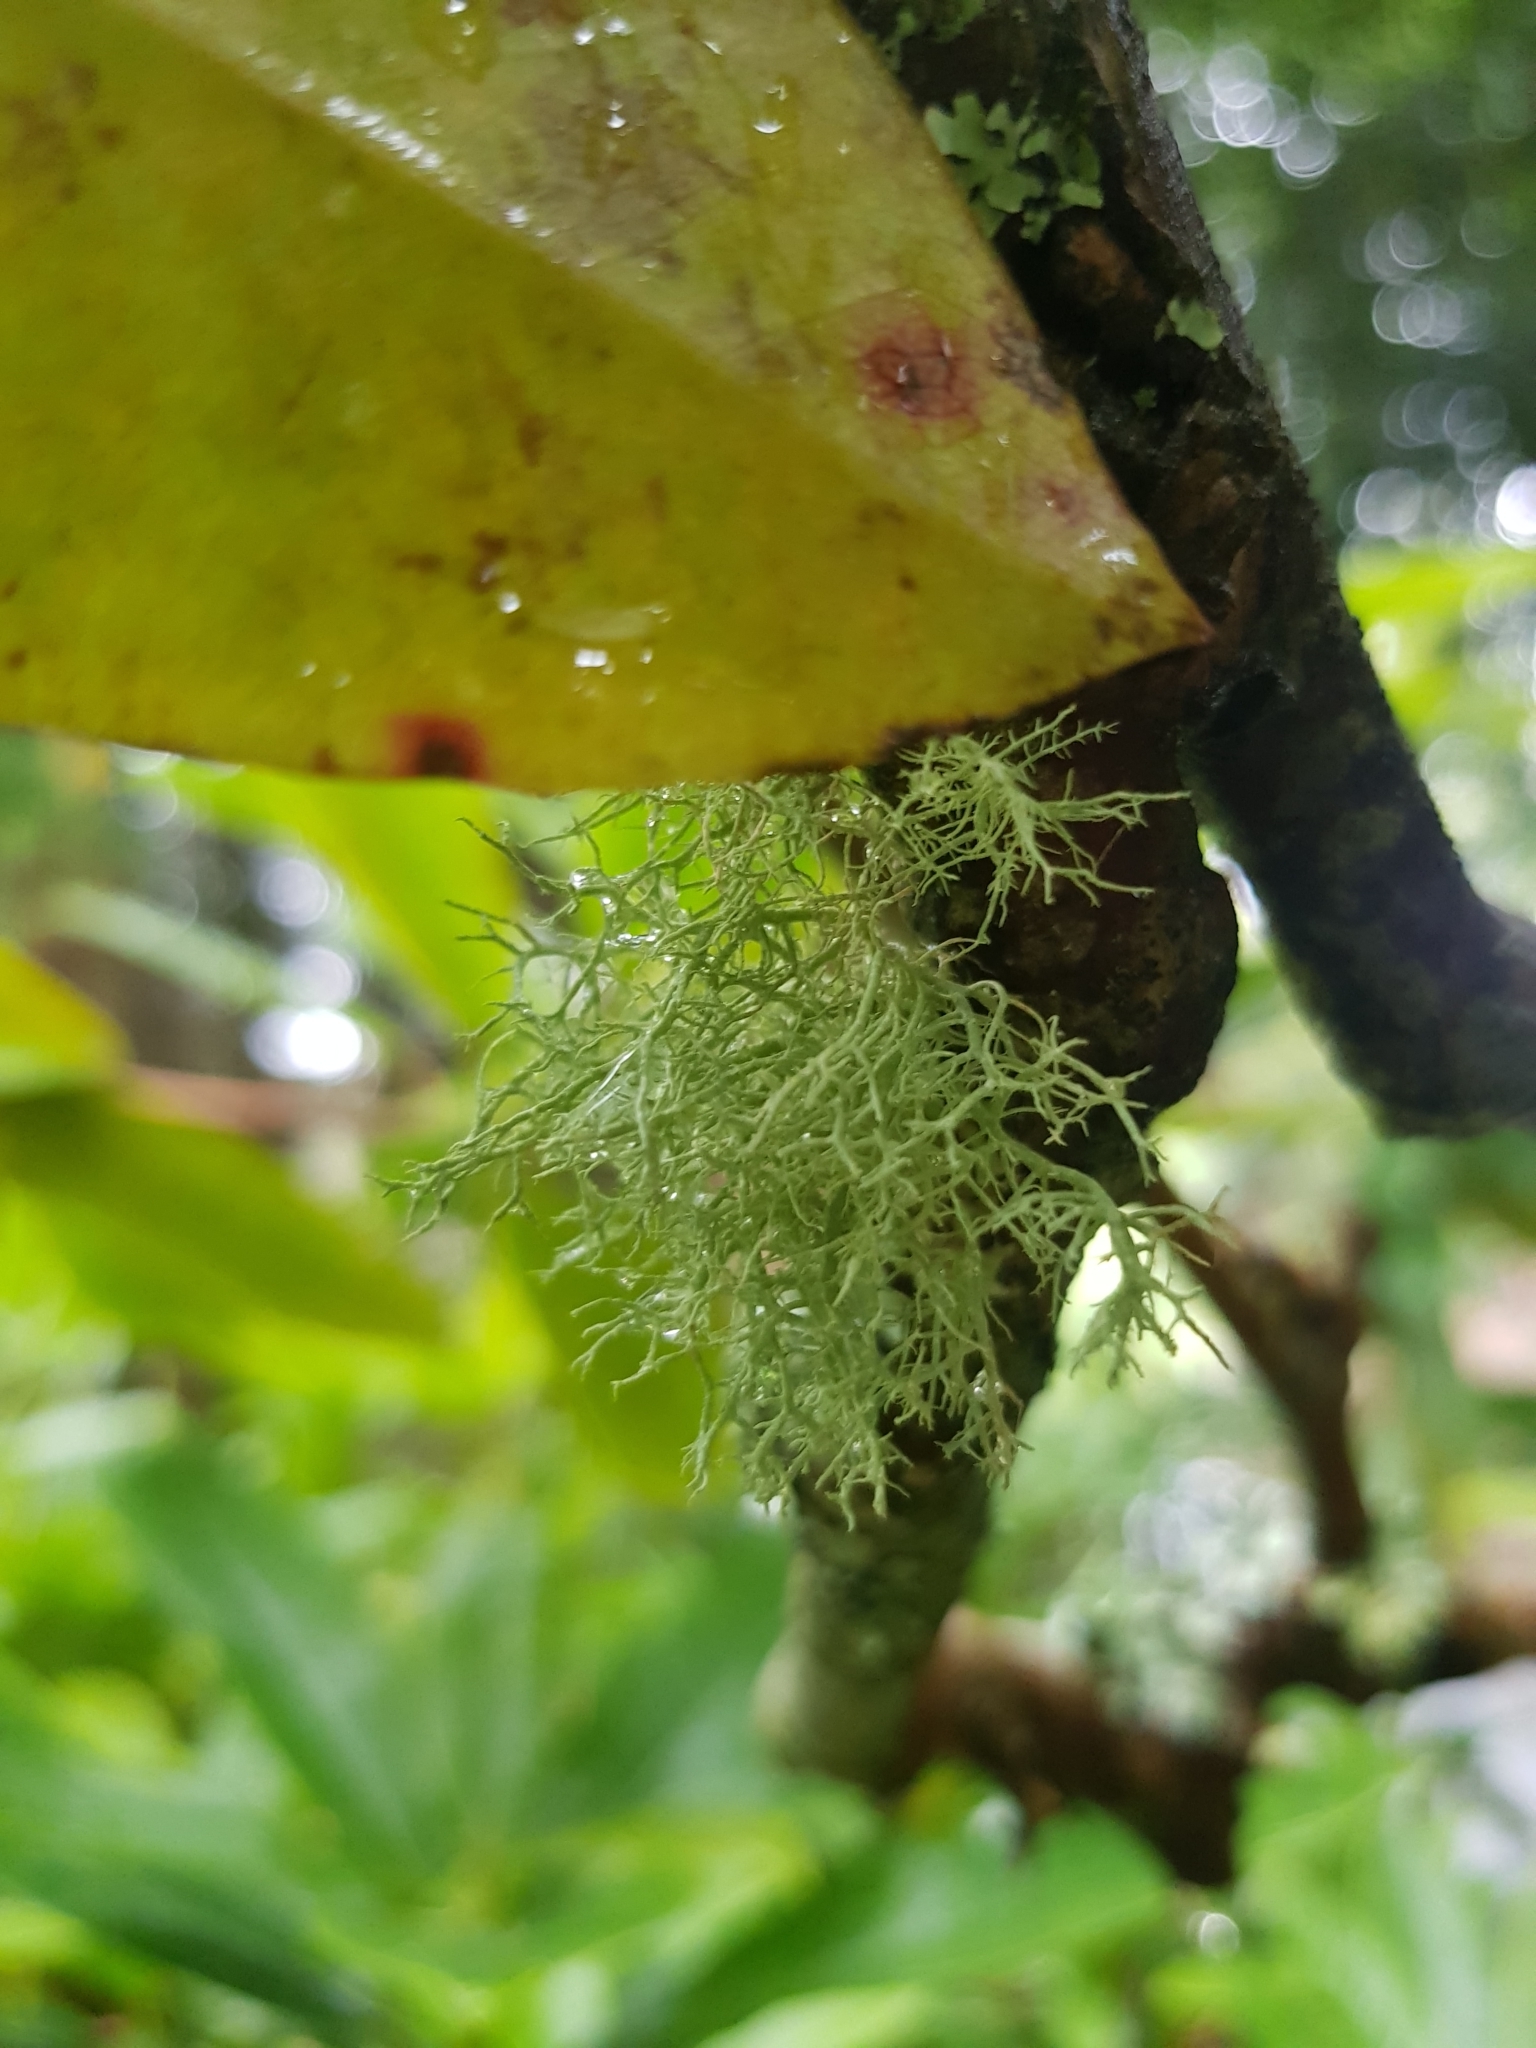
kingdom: Fungi
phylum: Ascomycota
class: Lecanoromycetes
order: Lecanorales
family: Parmeliaceae
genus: Usnea
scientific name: Usnea hirta
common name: Bristly beard lichen
